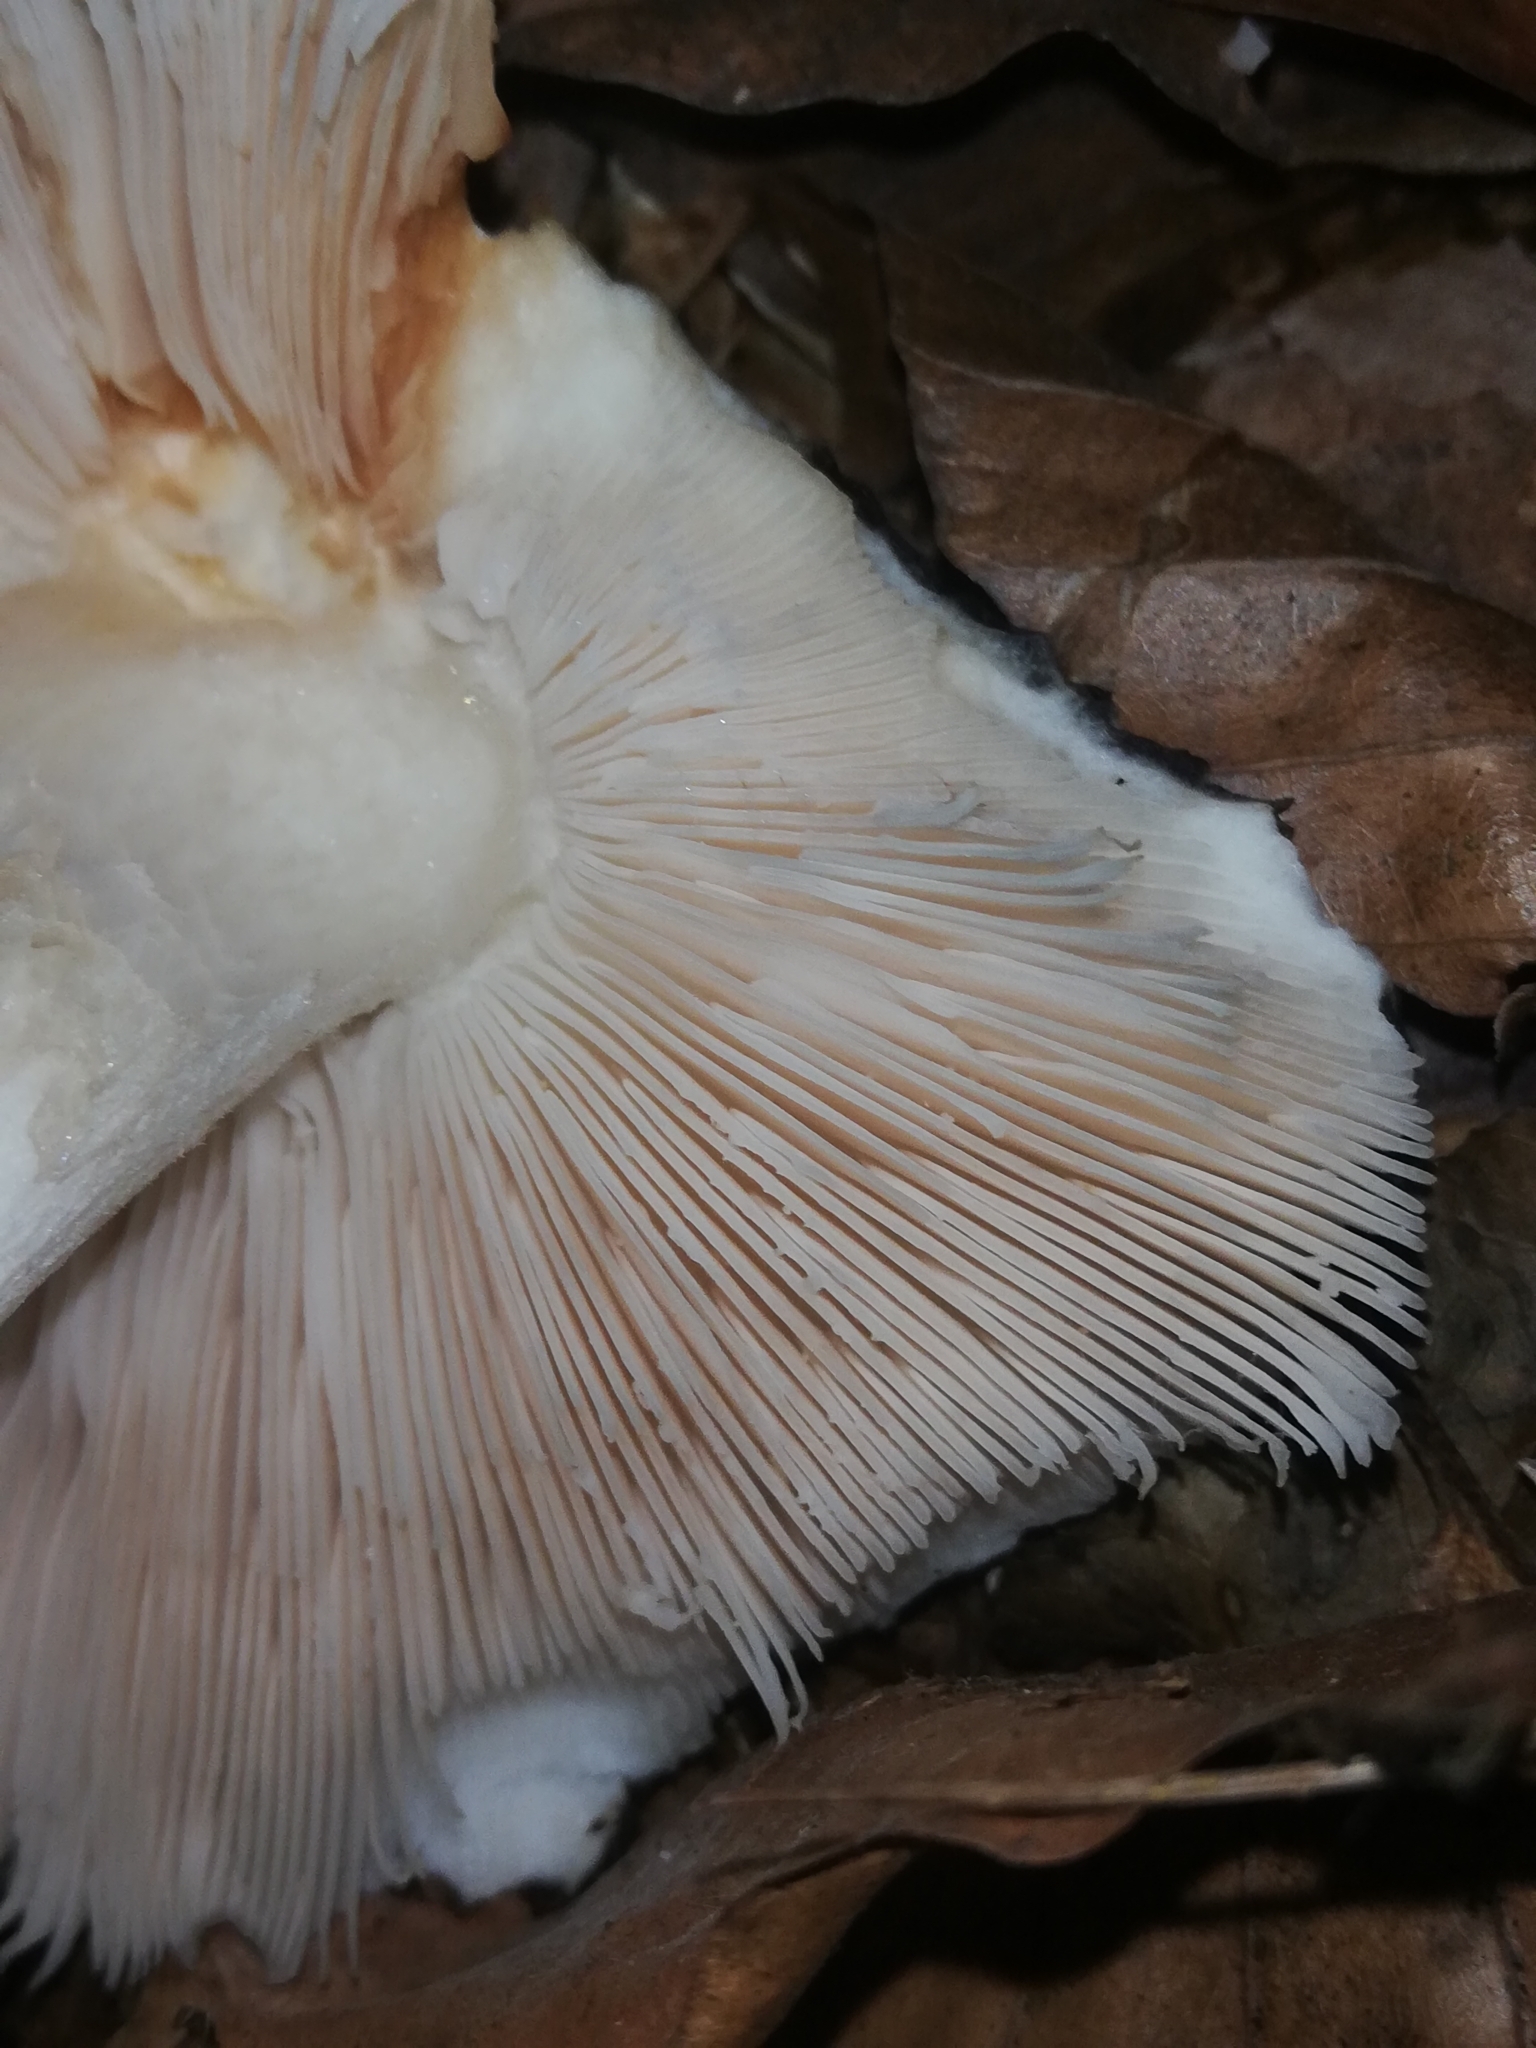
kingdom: Fungi
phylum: Basidiomycota
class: Agaricomycetes
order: Agaricales
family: Pluteaceae
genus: Pluteus
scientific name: Pluteus cervinus
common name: Deer shield
